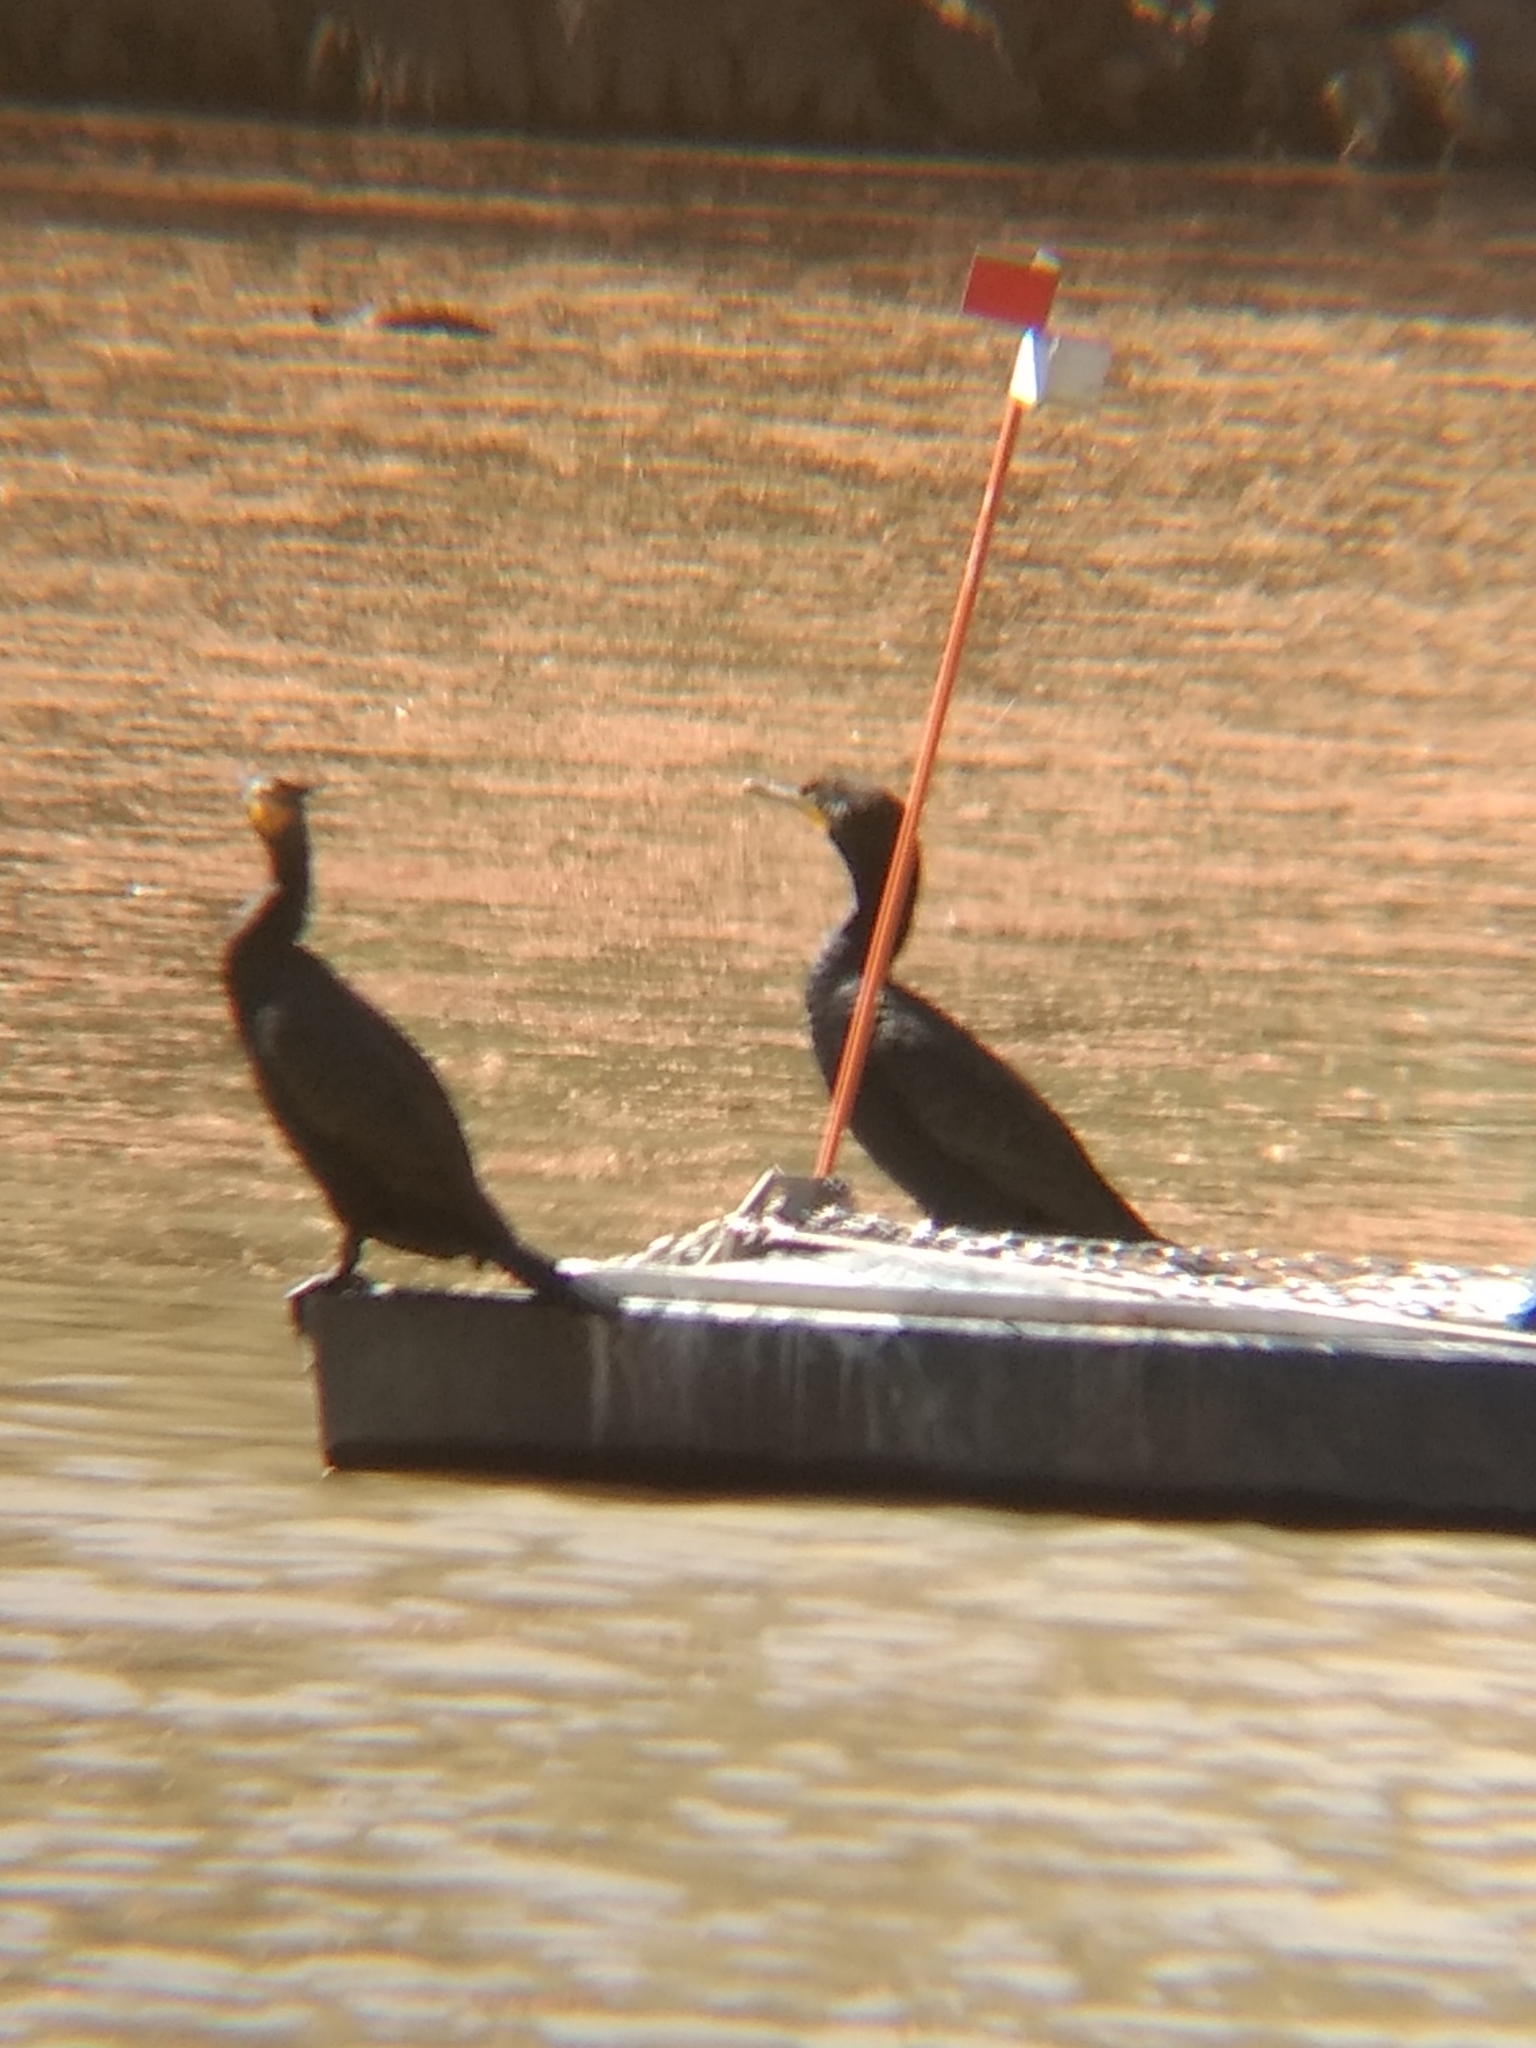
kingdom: Animalia
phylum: Chordata
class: Aves
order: Suliformes
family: Phalacrocoracidae
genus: Phalacrocorax
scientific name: Phalacrocorax auritus
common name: Double-crested cormorant
